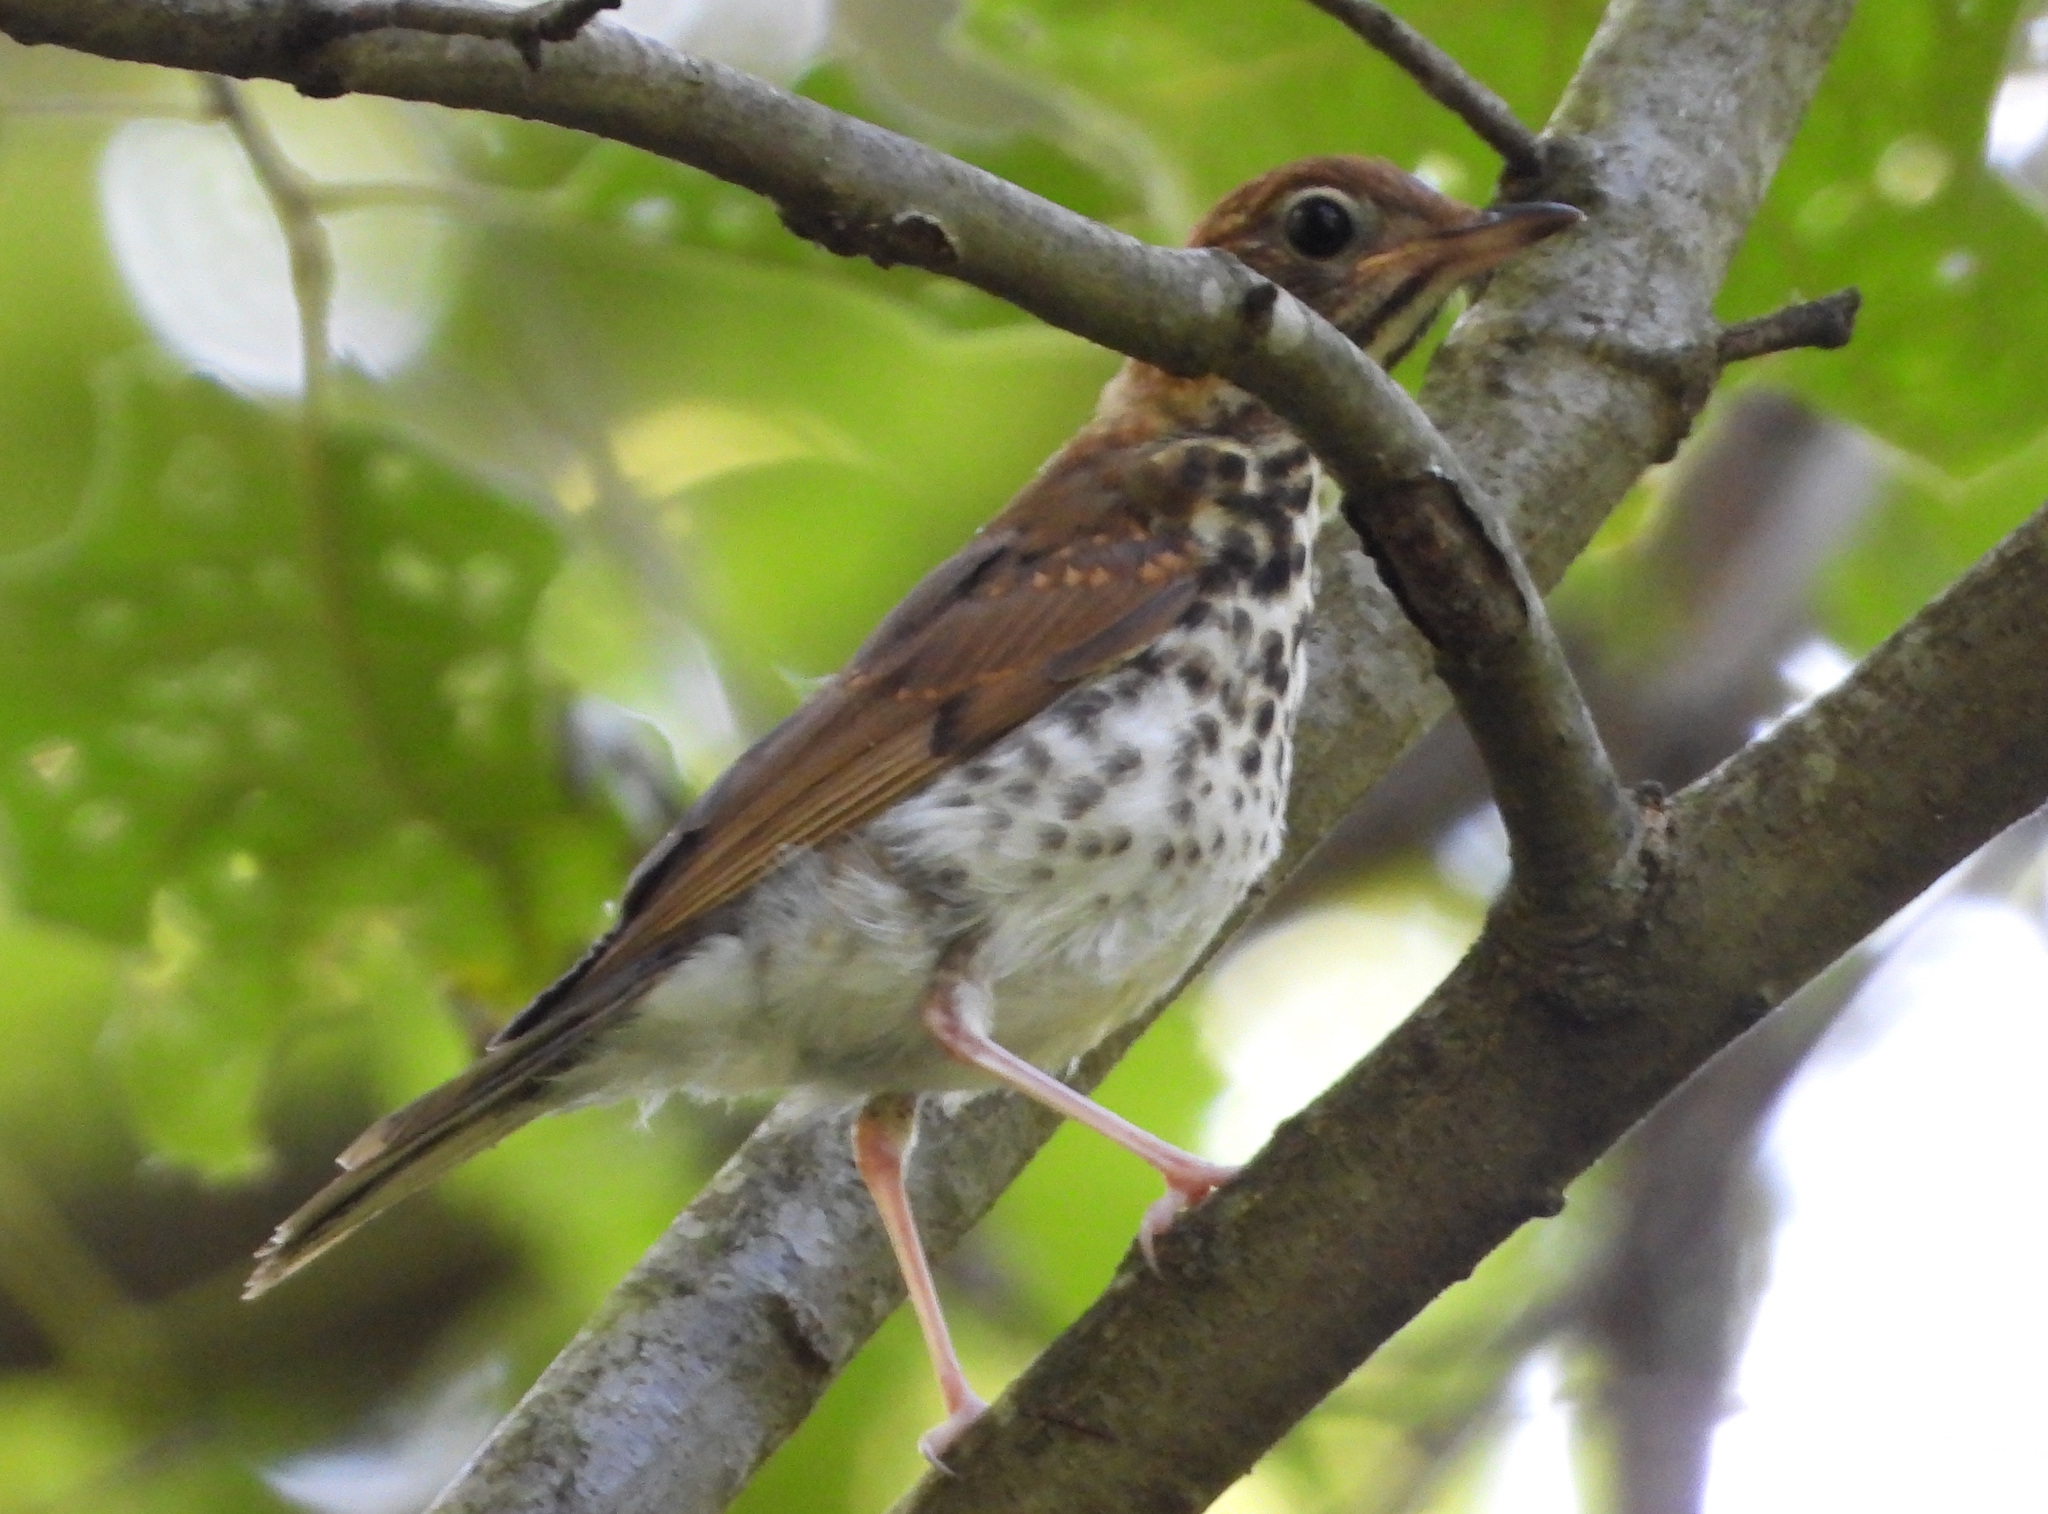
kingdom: Animalia
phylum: Chordata
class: Aves
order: Passeriformes
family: Turdidae
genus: Hylocichla
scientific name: Hylocichla mustelina
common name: Wood thrush
